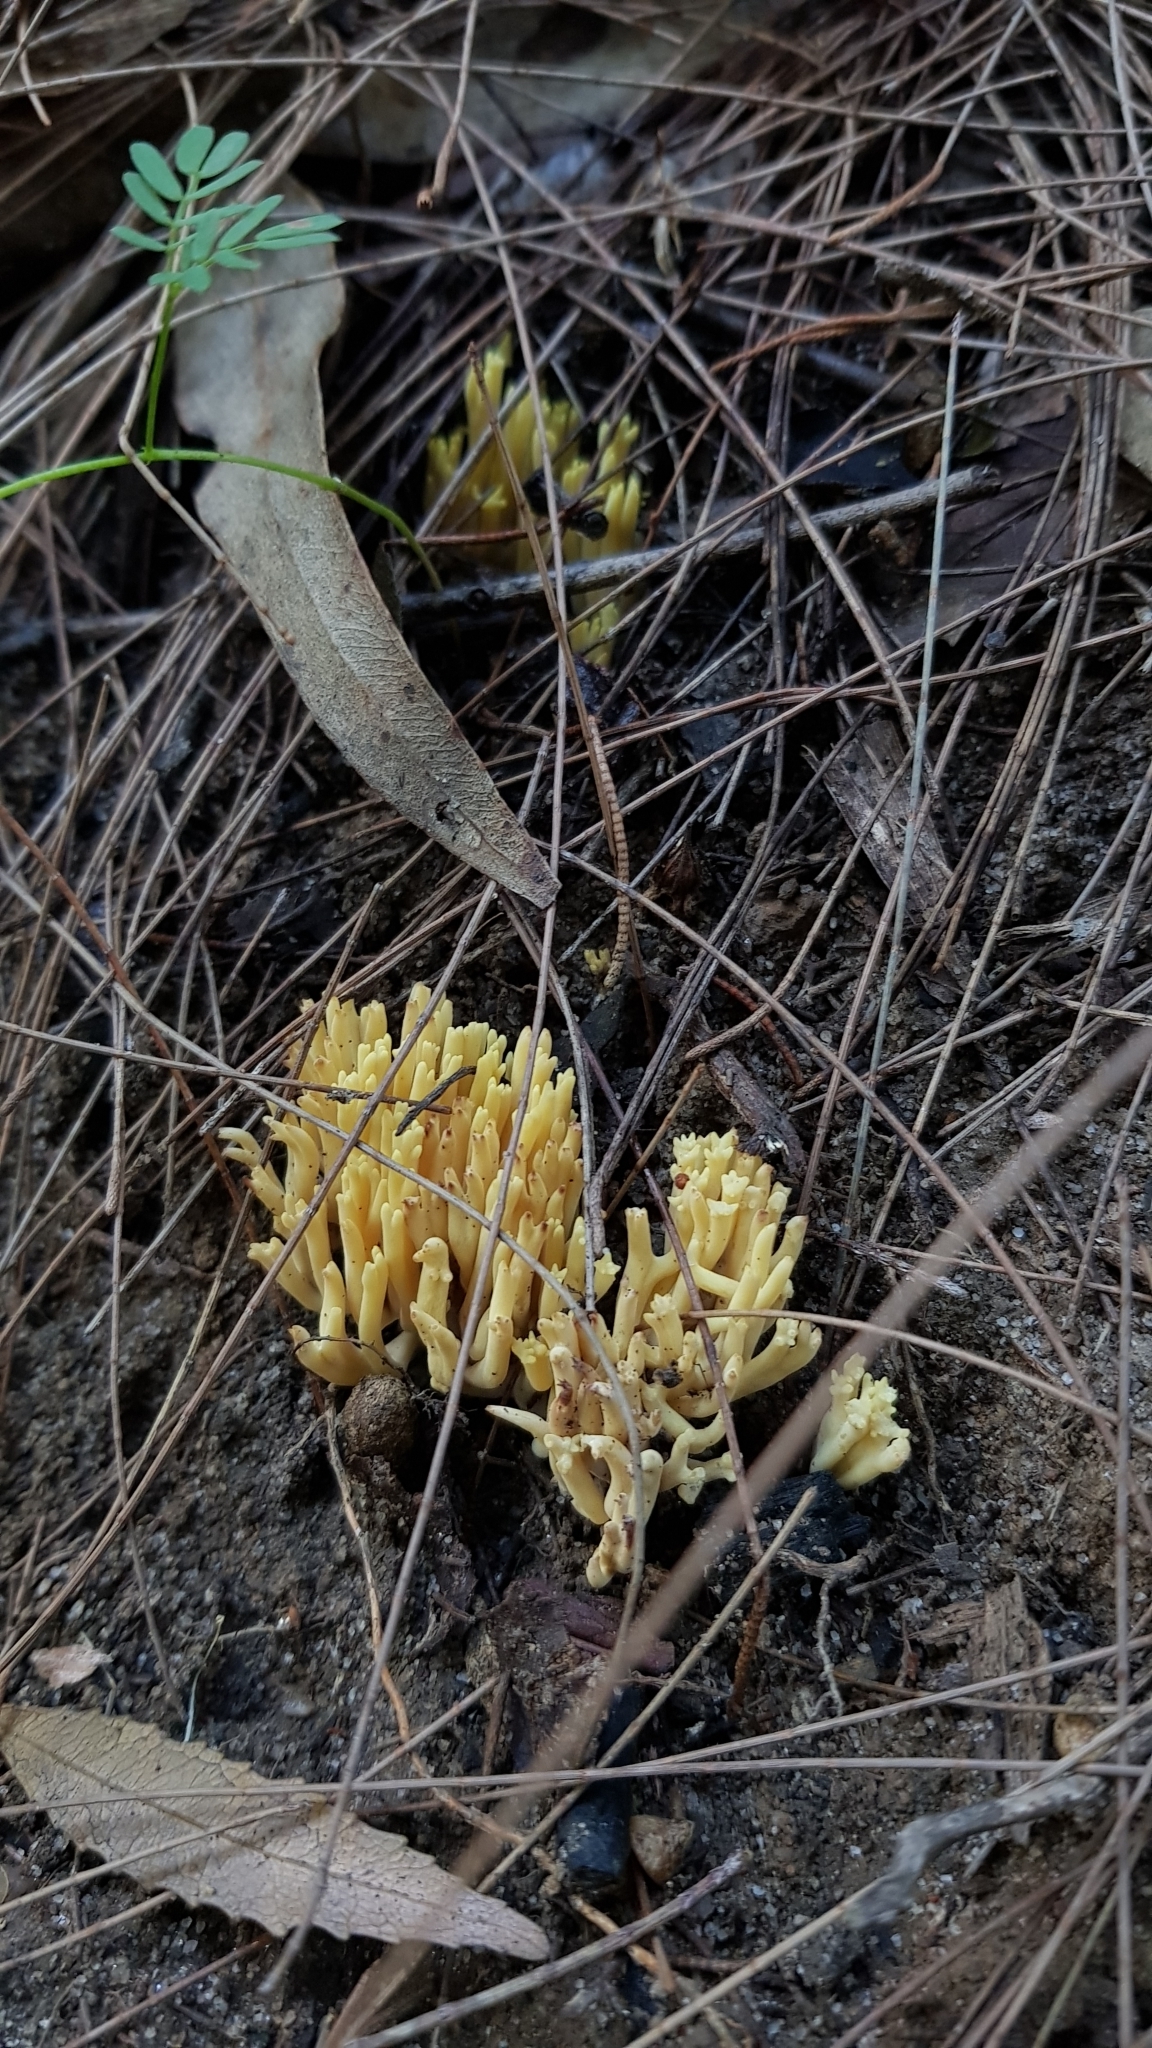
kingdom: Fungi
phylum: Basidiomycota
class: Agaricomycetes
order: Gomphales
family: Gomphaceae
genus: Ramaria
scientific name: Ramaria lorithamnus
